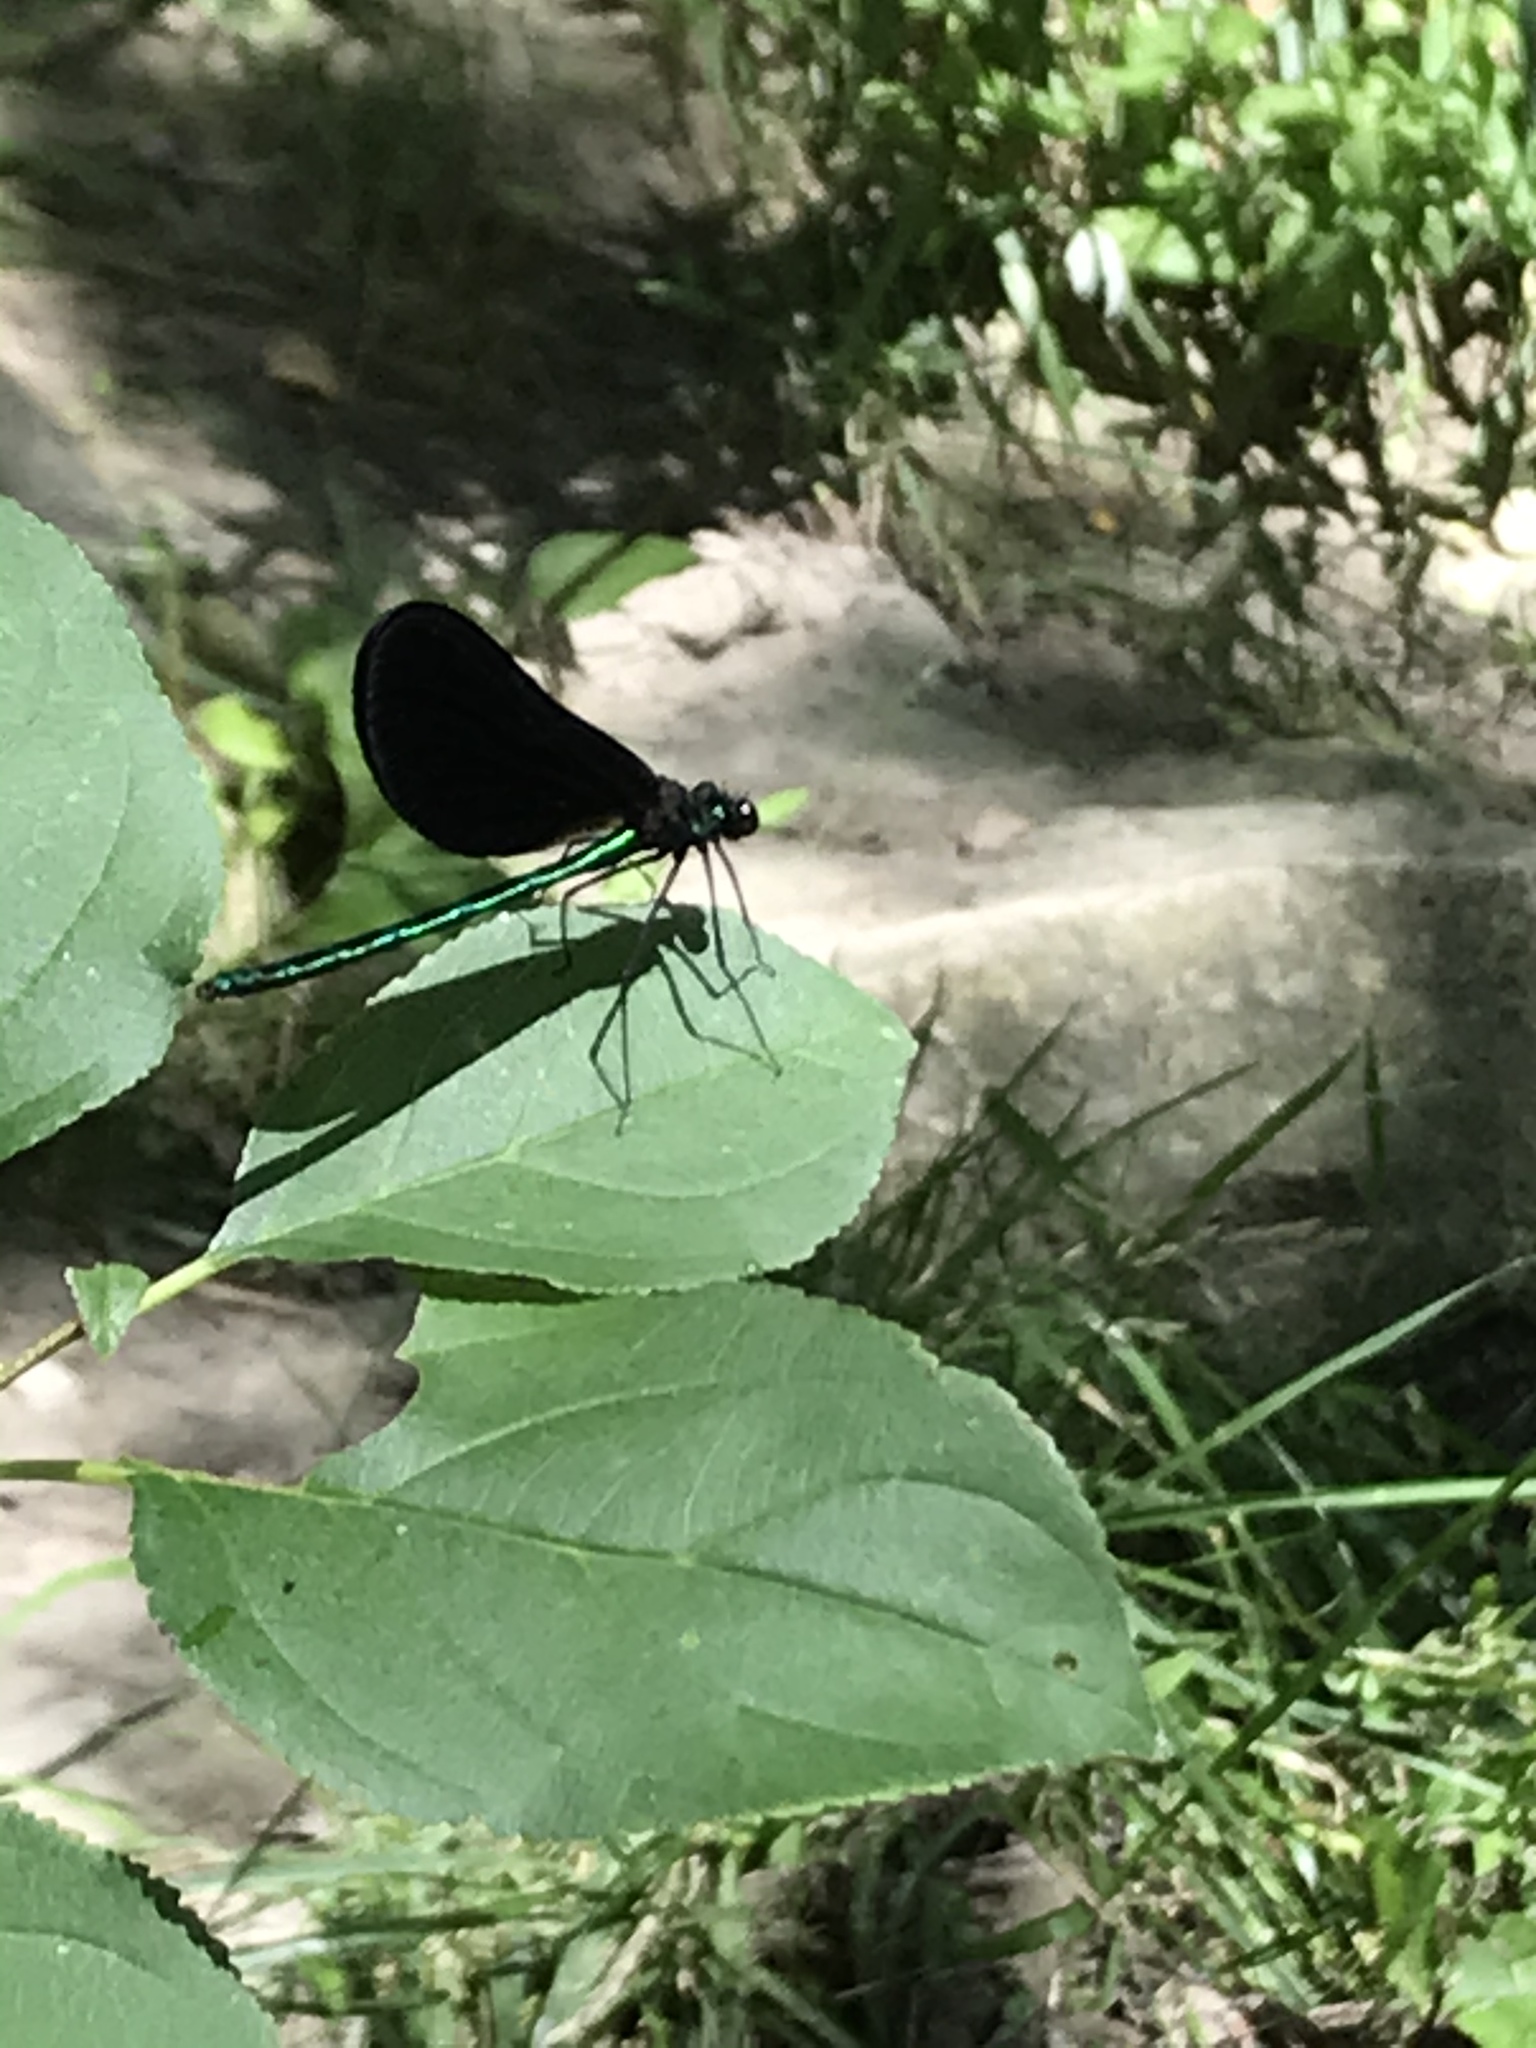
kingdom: Animalia
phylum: Arthropoda
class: Insecta
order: Odonata
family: Calopterygidae
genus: Calopteryx
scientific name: Calopteryx maculata
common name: Ebony jewelwing
